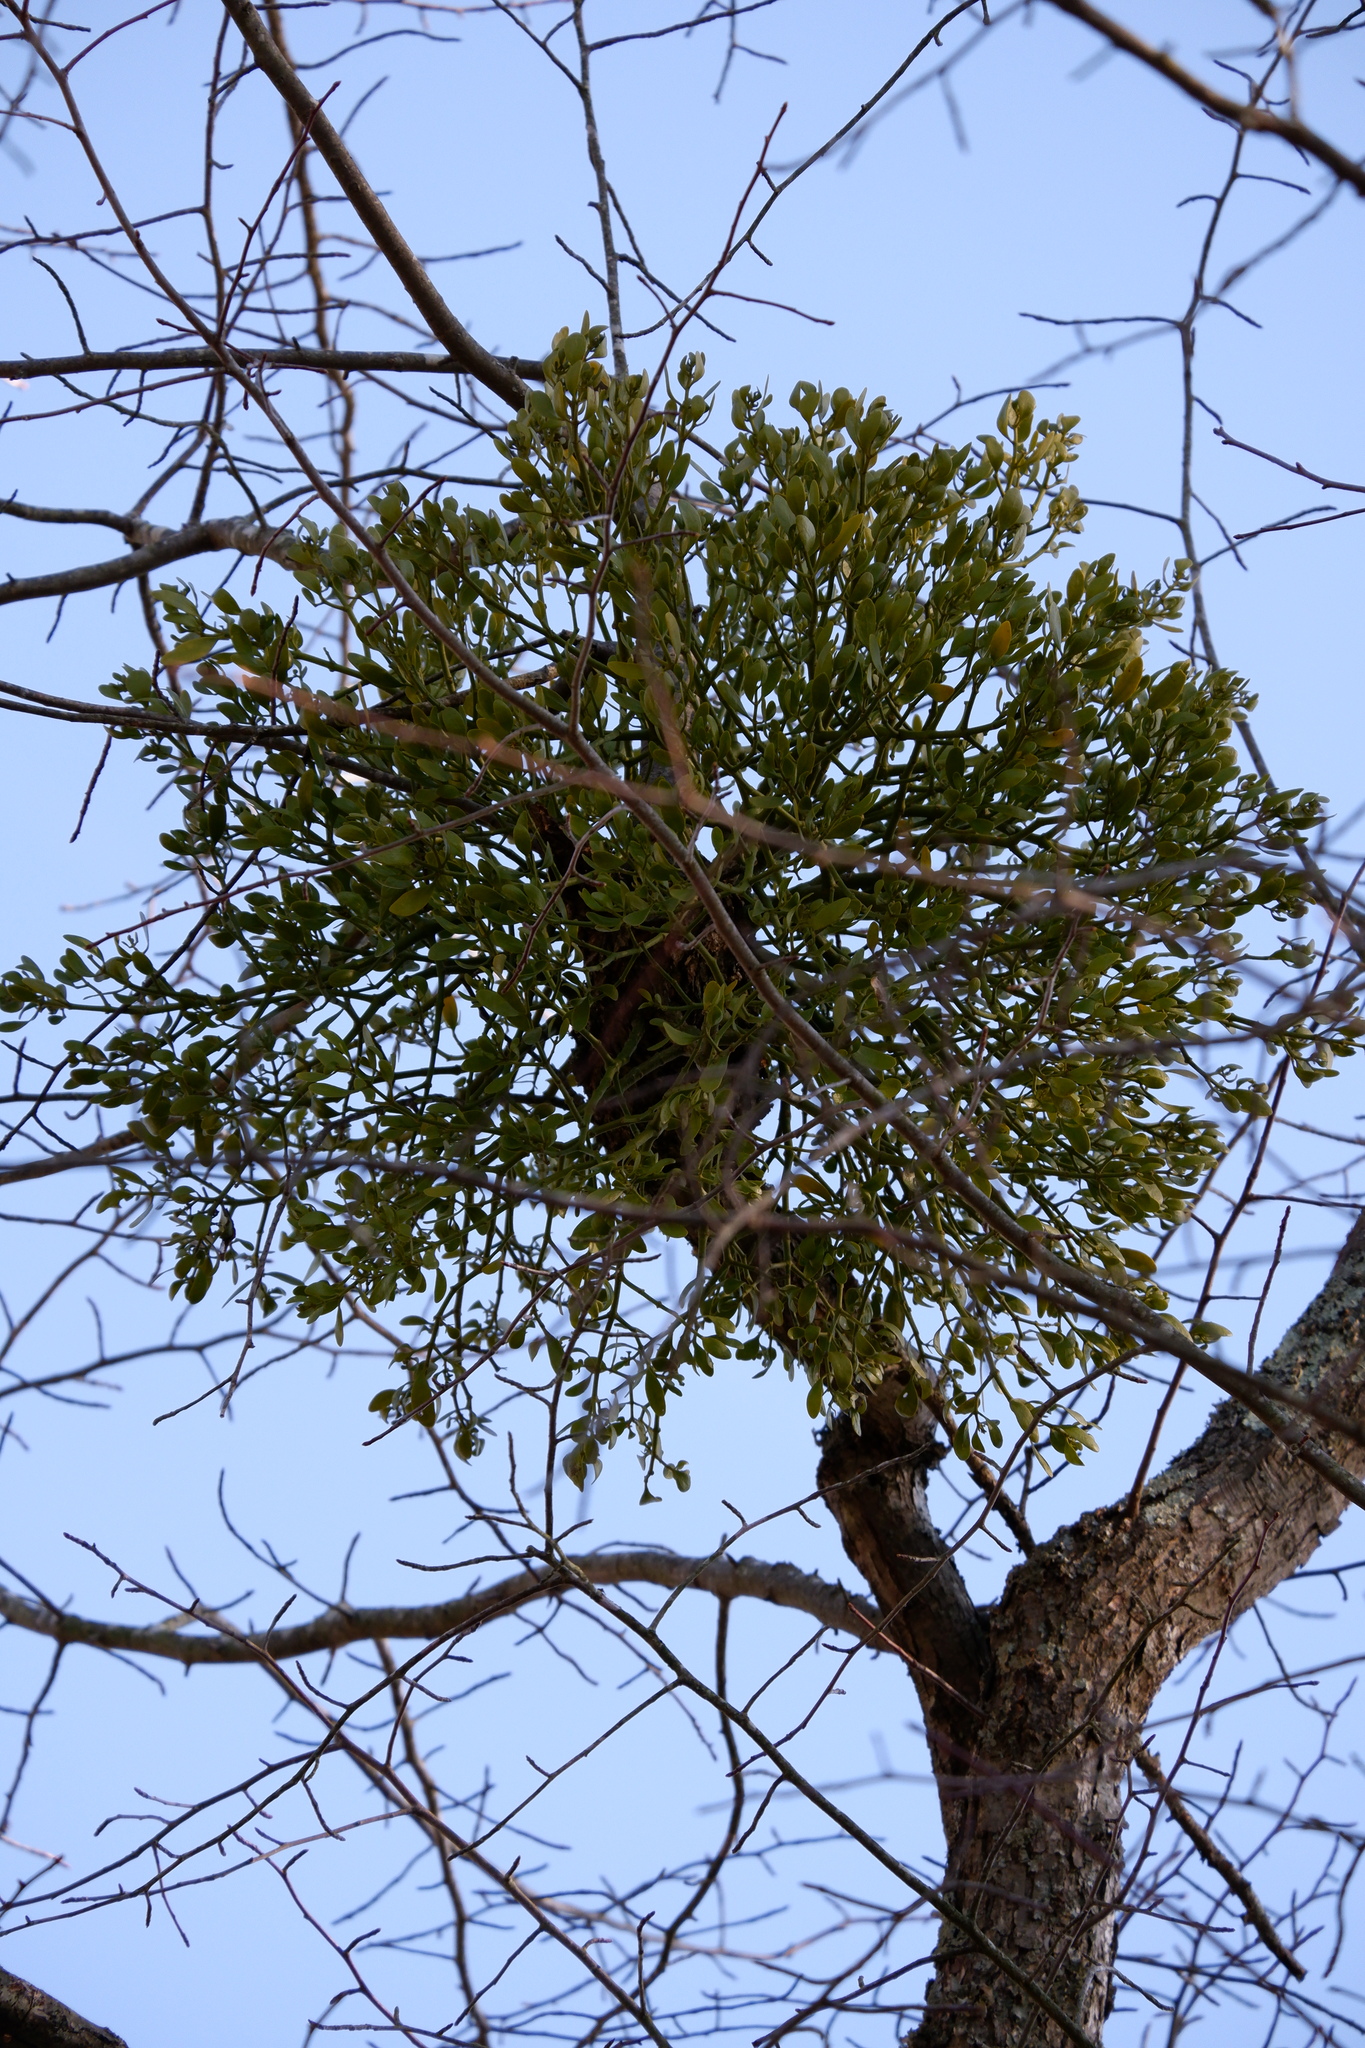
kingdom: Plantae
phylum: Tracheophyta
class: Magnoliopsida
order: Santalales
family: Viscaceae
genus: Phoradendron
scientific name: Phoradendron leucarpum
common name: Pacific mistletoe
